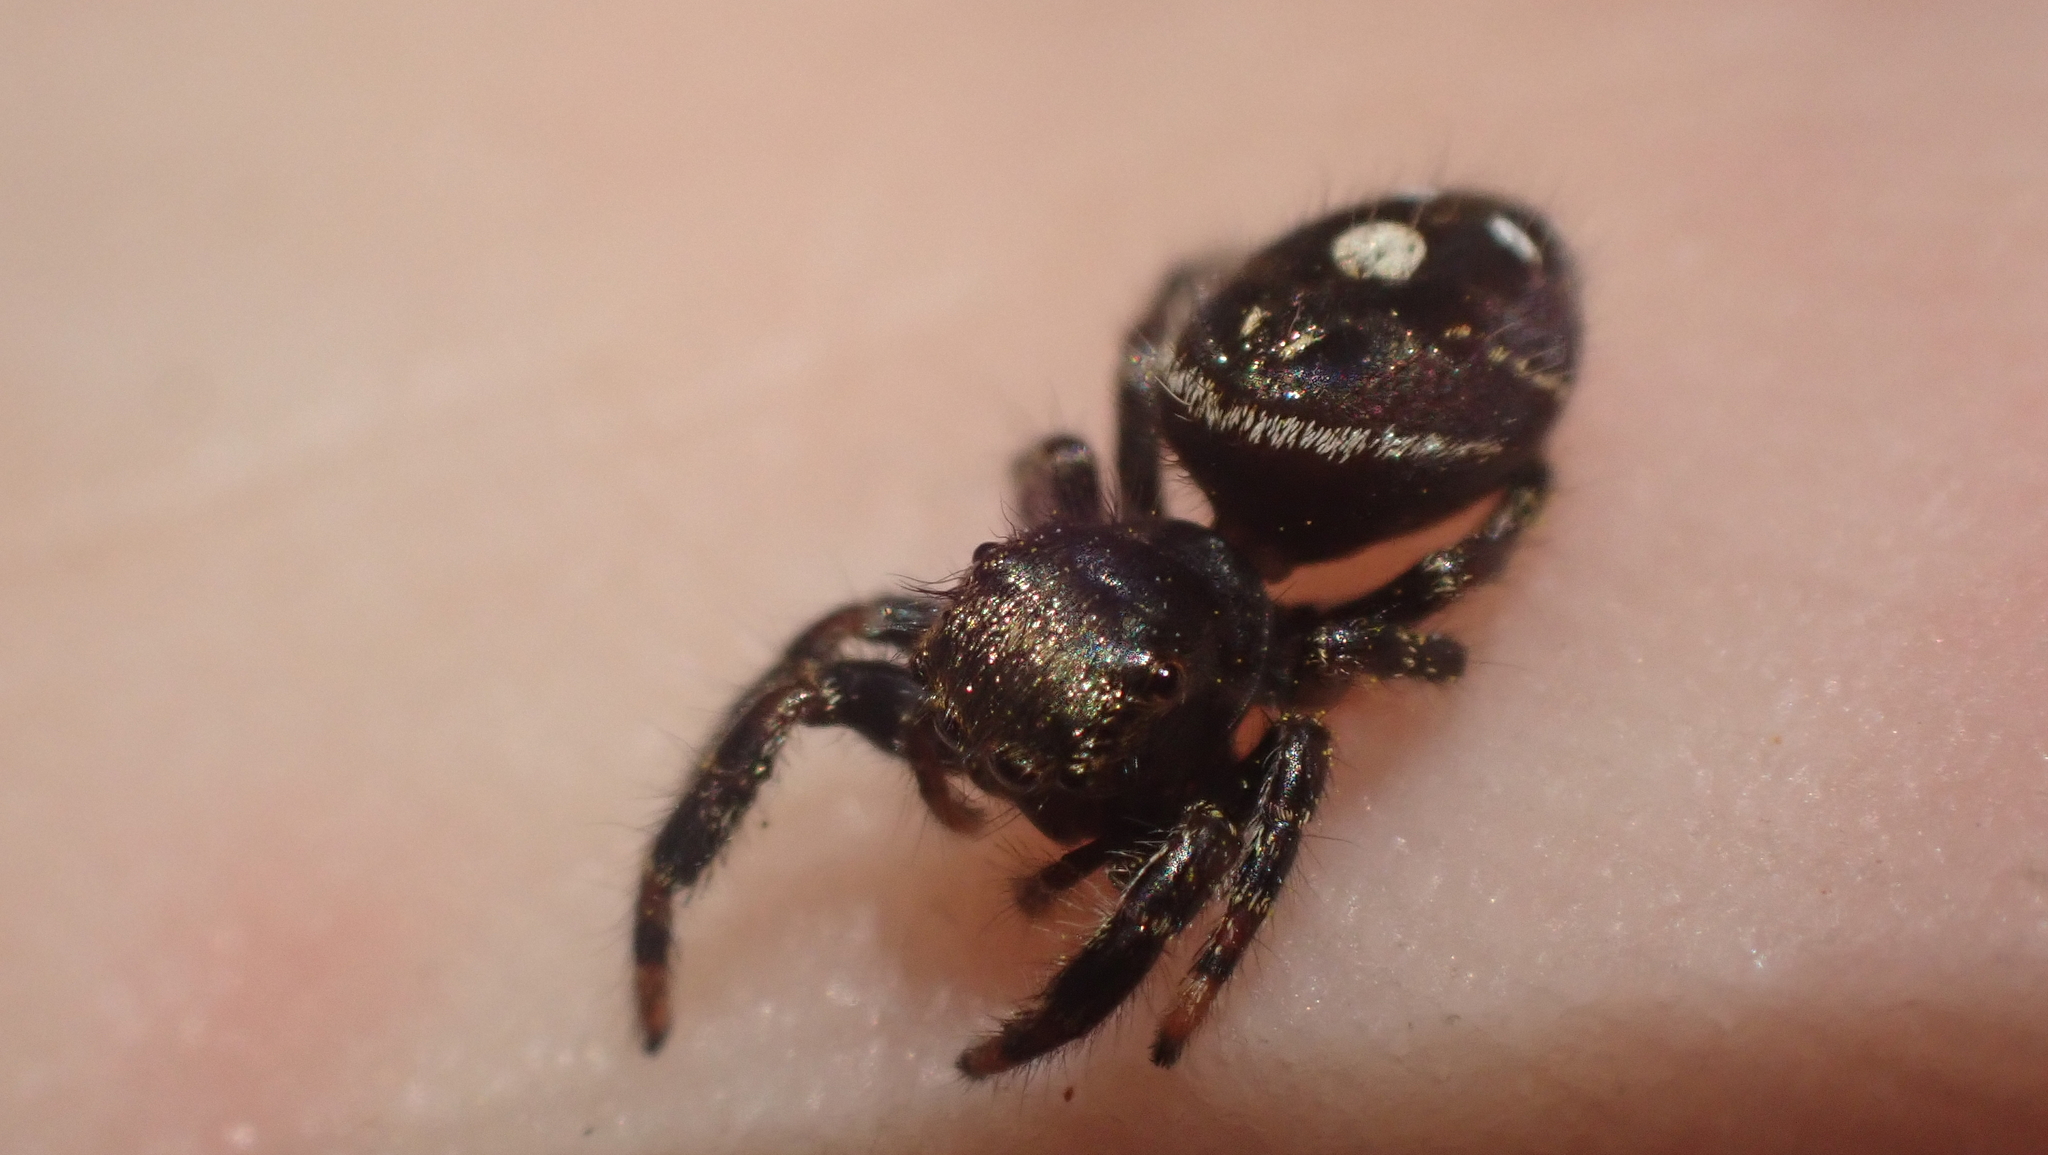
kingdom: Animalia
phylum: Arthropoda
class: Arachnida
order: Araneae
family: Salticidae
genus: Phidippus
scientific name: Phidippus audax
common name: Bold jumper
